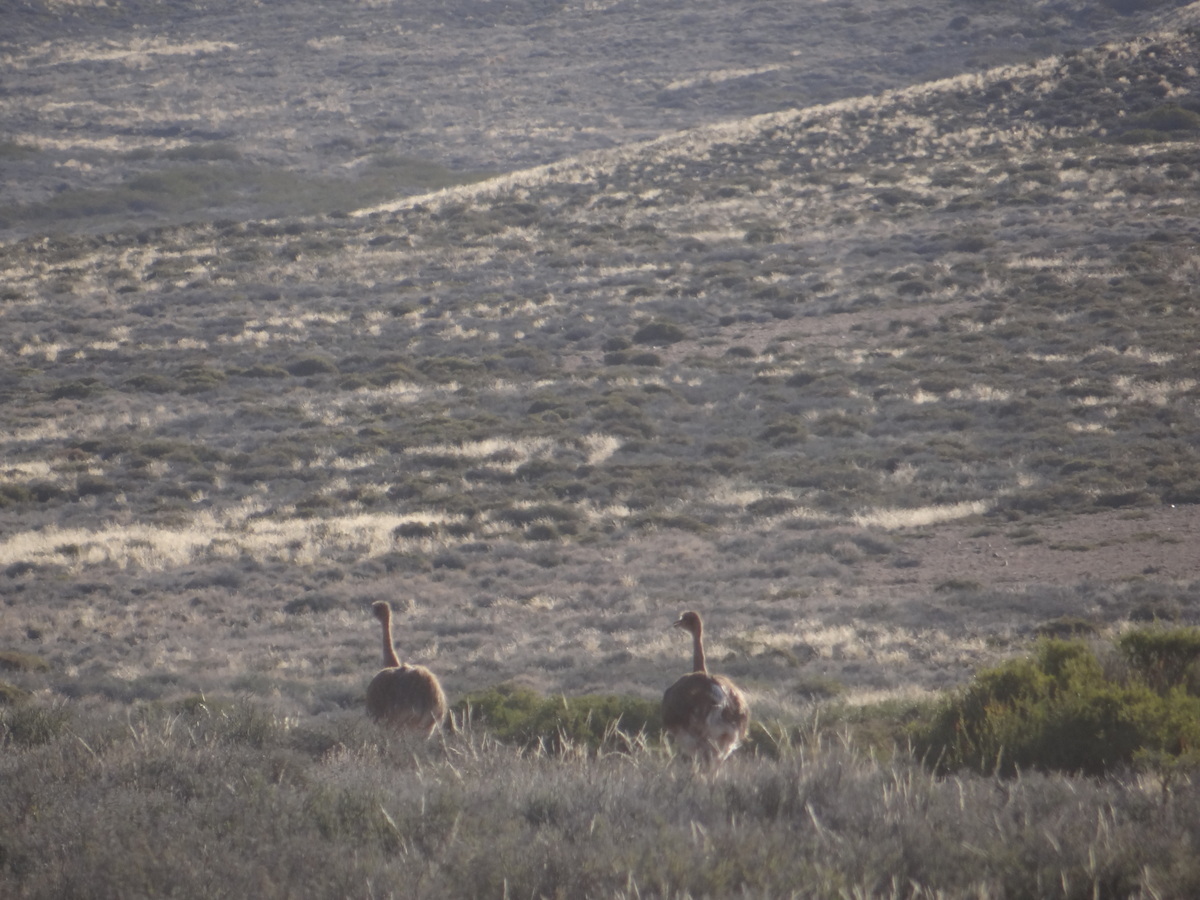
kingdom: Animalia
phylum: Chordata
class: Aves
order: Rheiformes
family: Rheidae
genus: Rhea
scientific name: Rhea pennata
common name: Lesser rhea
